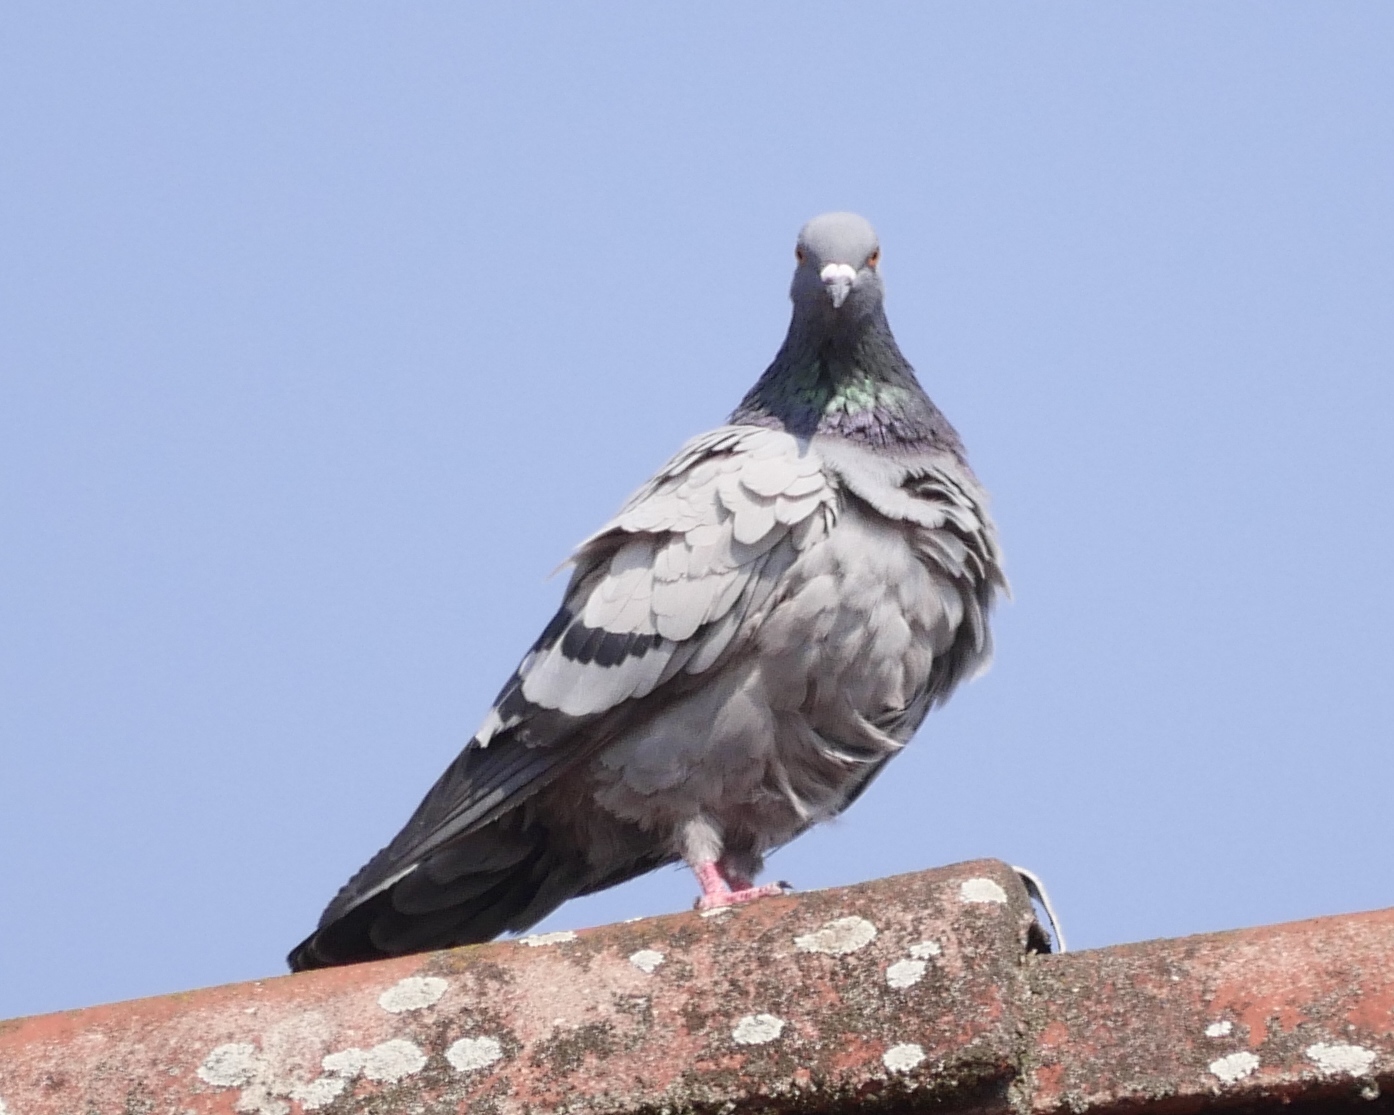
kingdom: Animalia
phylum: Chordata
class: Aves
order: Columbiformes
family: Columbidae
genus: Columba
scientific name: Columba livia
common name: Rock pigeon
